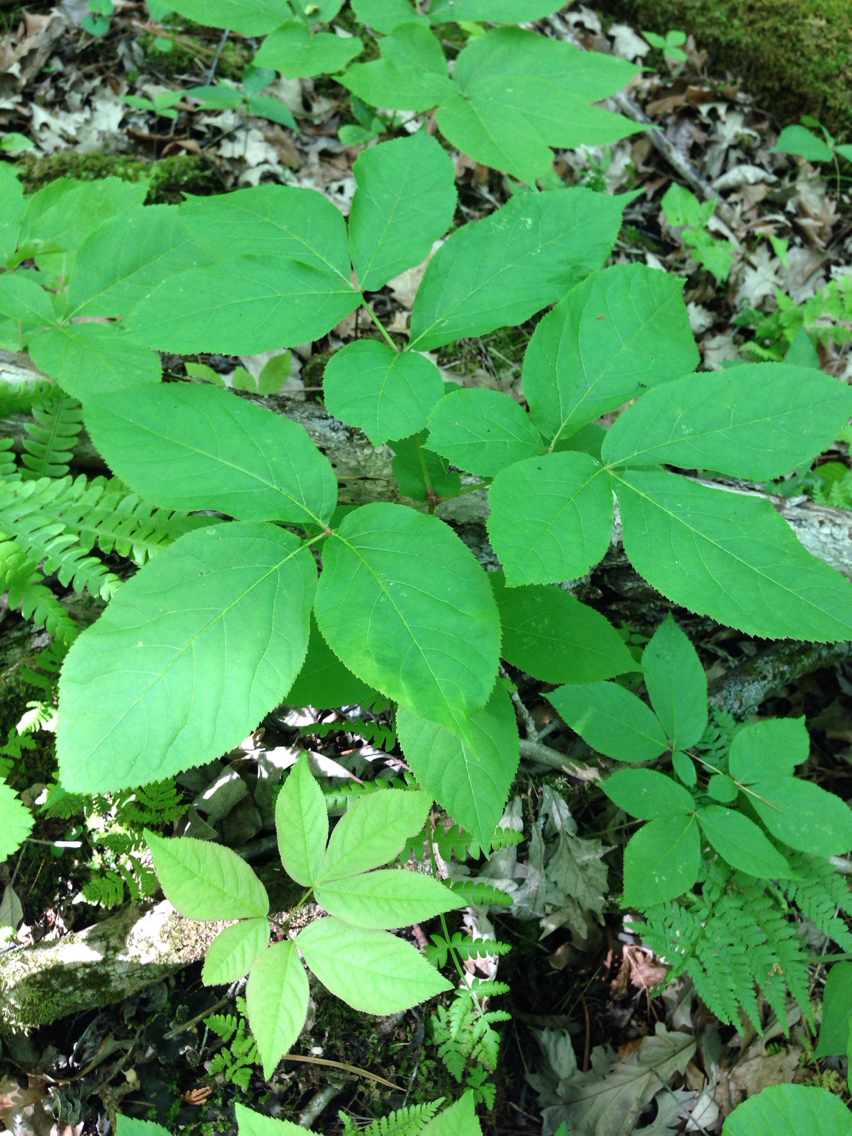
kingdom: Plantae
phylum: Tracheophyta
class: Magnoliopsida
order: Apiales
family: Araliaceae
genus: Aralia
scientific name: Aralia nudicaulis
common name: Wild sarsaparilla
